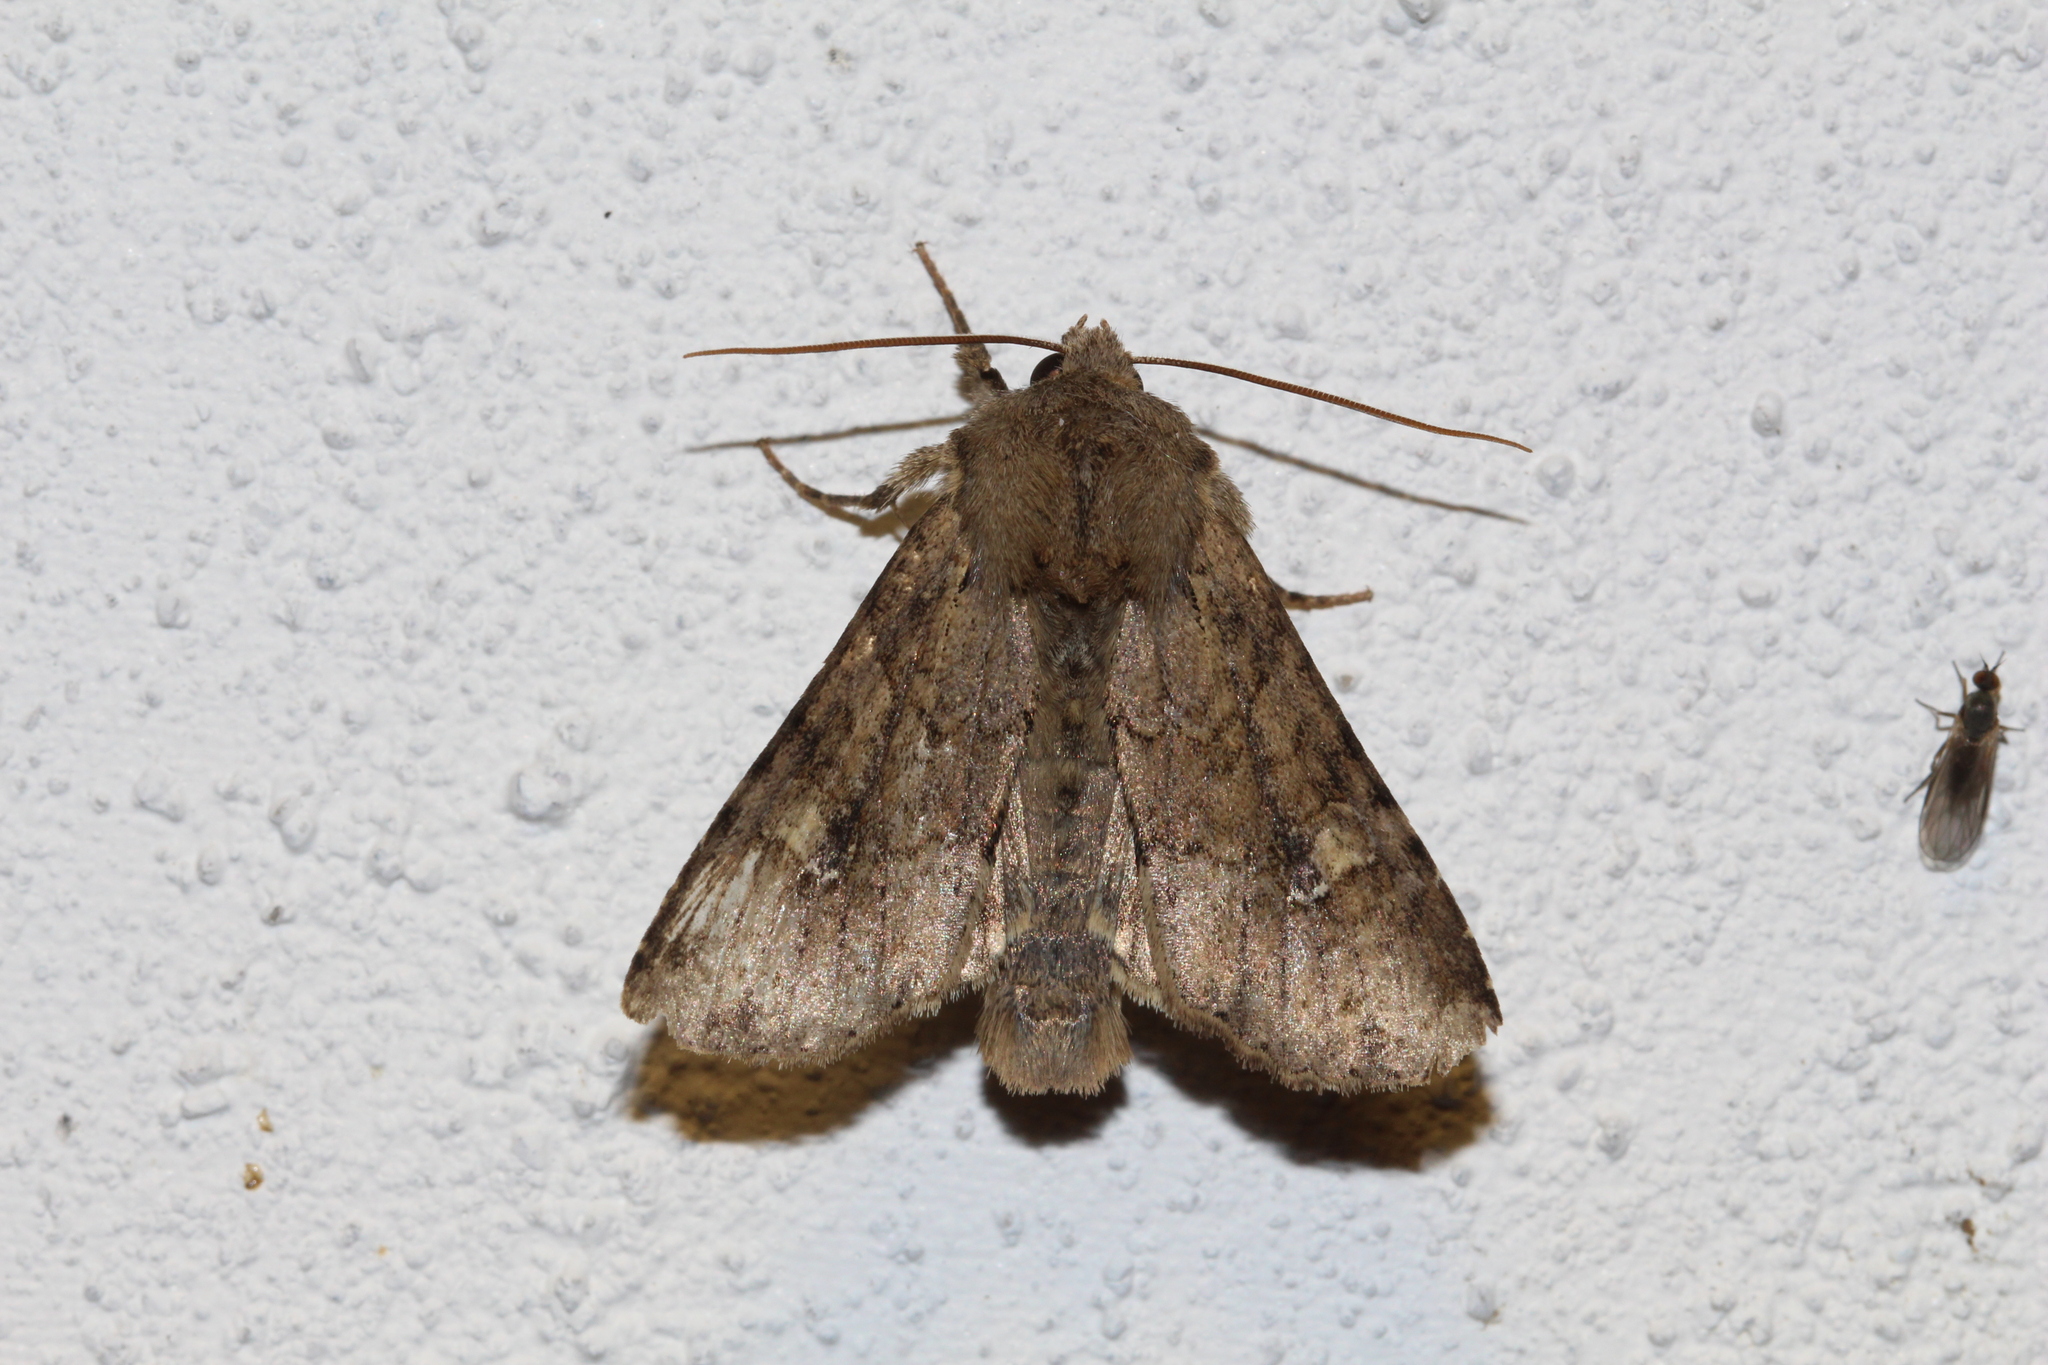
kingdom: Animalia
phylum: Arthropoda
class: Insecta
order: Lepidoptera
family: Noctuidae
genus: Apamea
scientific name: Apamea sordens
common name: Rustic shoulder-knot
